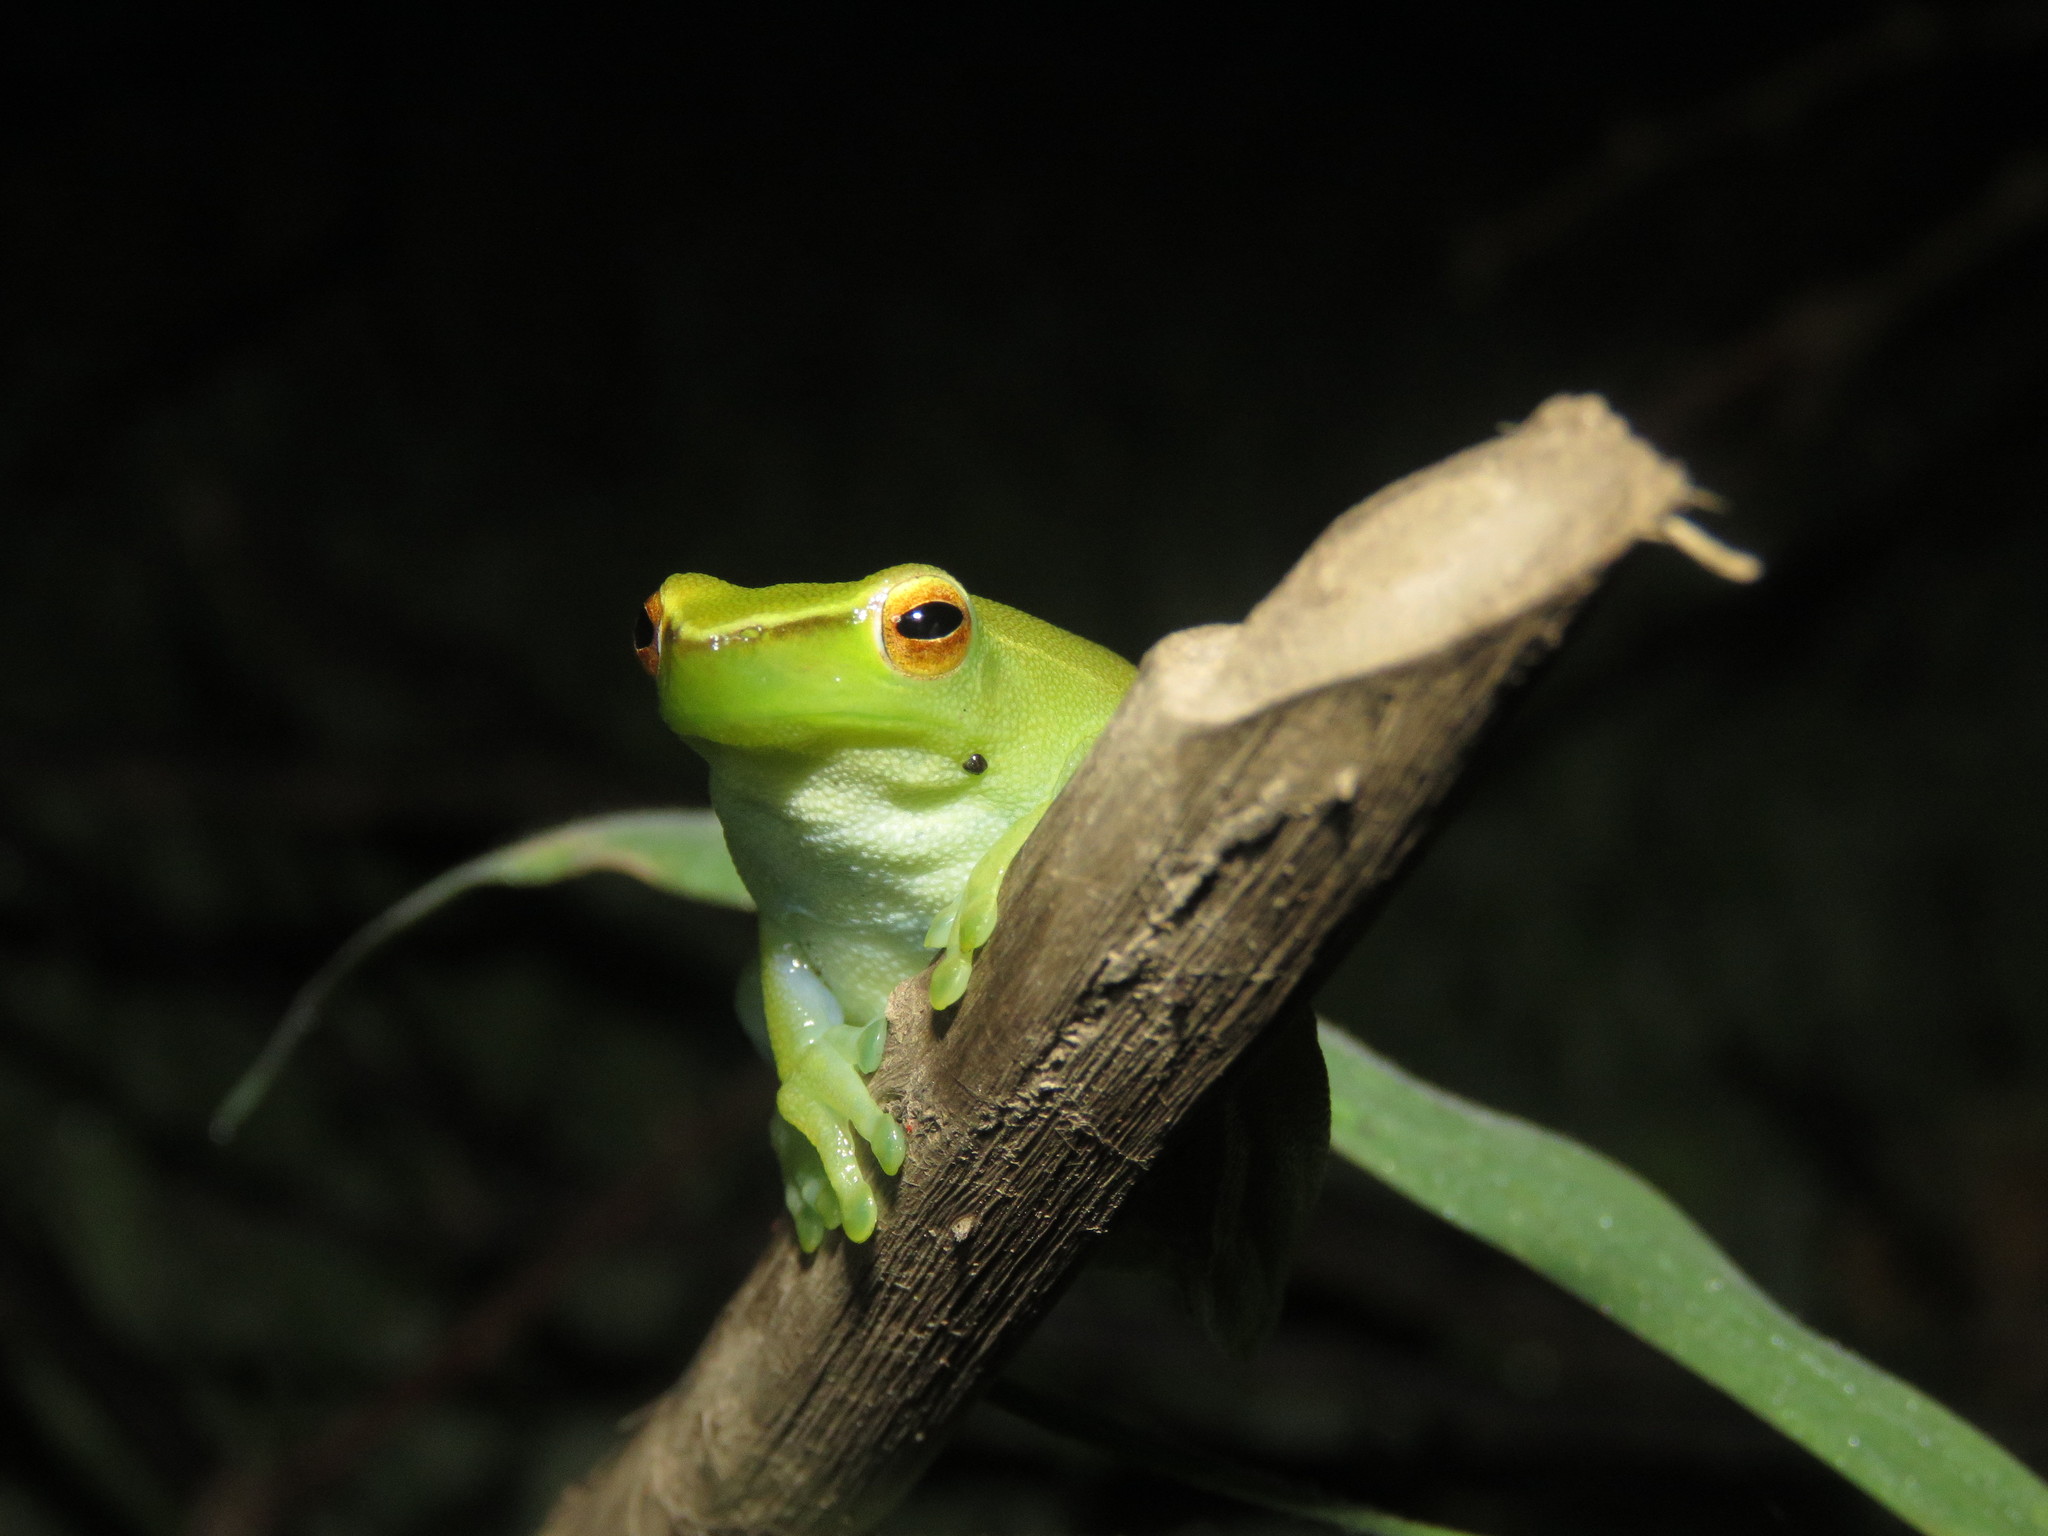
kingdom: Animalia
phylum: Chordata
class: Amphibia
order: Anura
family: Hylidae
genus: Sphaenorhynchus
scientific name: Sphaenorhynchus lacteus
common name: Orinoco lime treefrog
